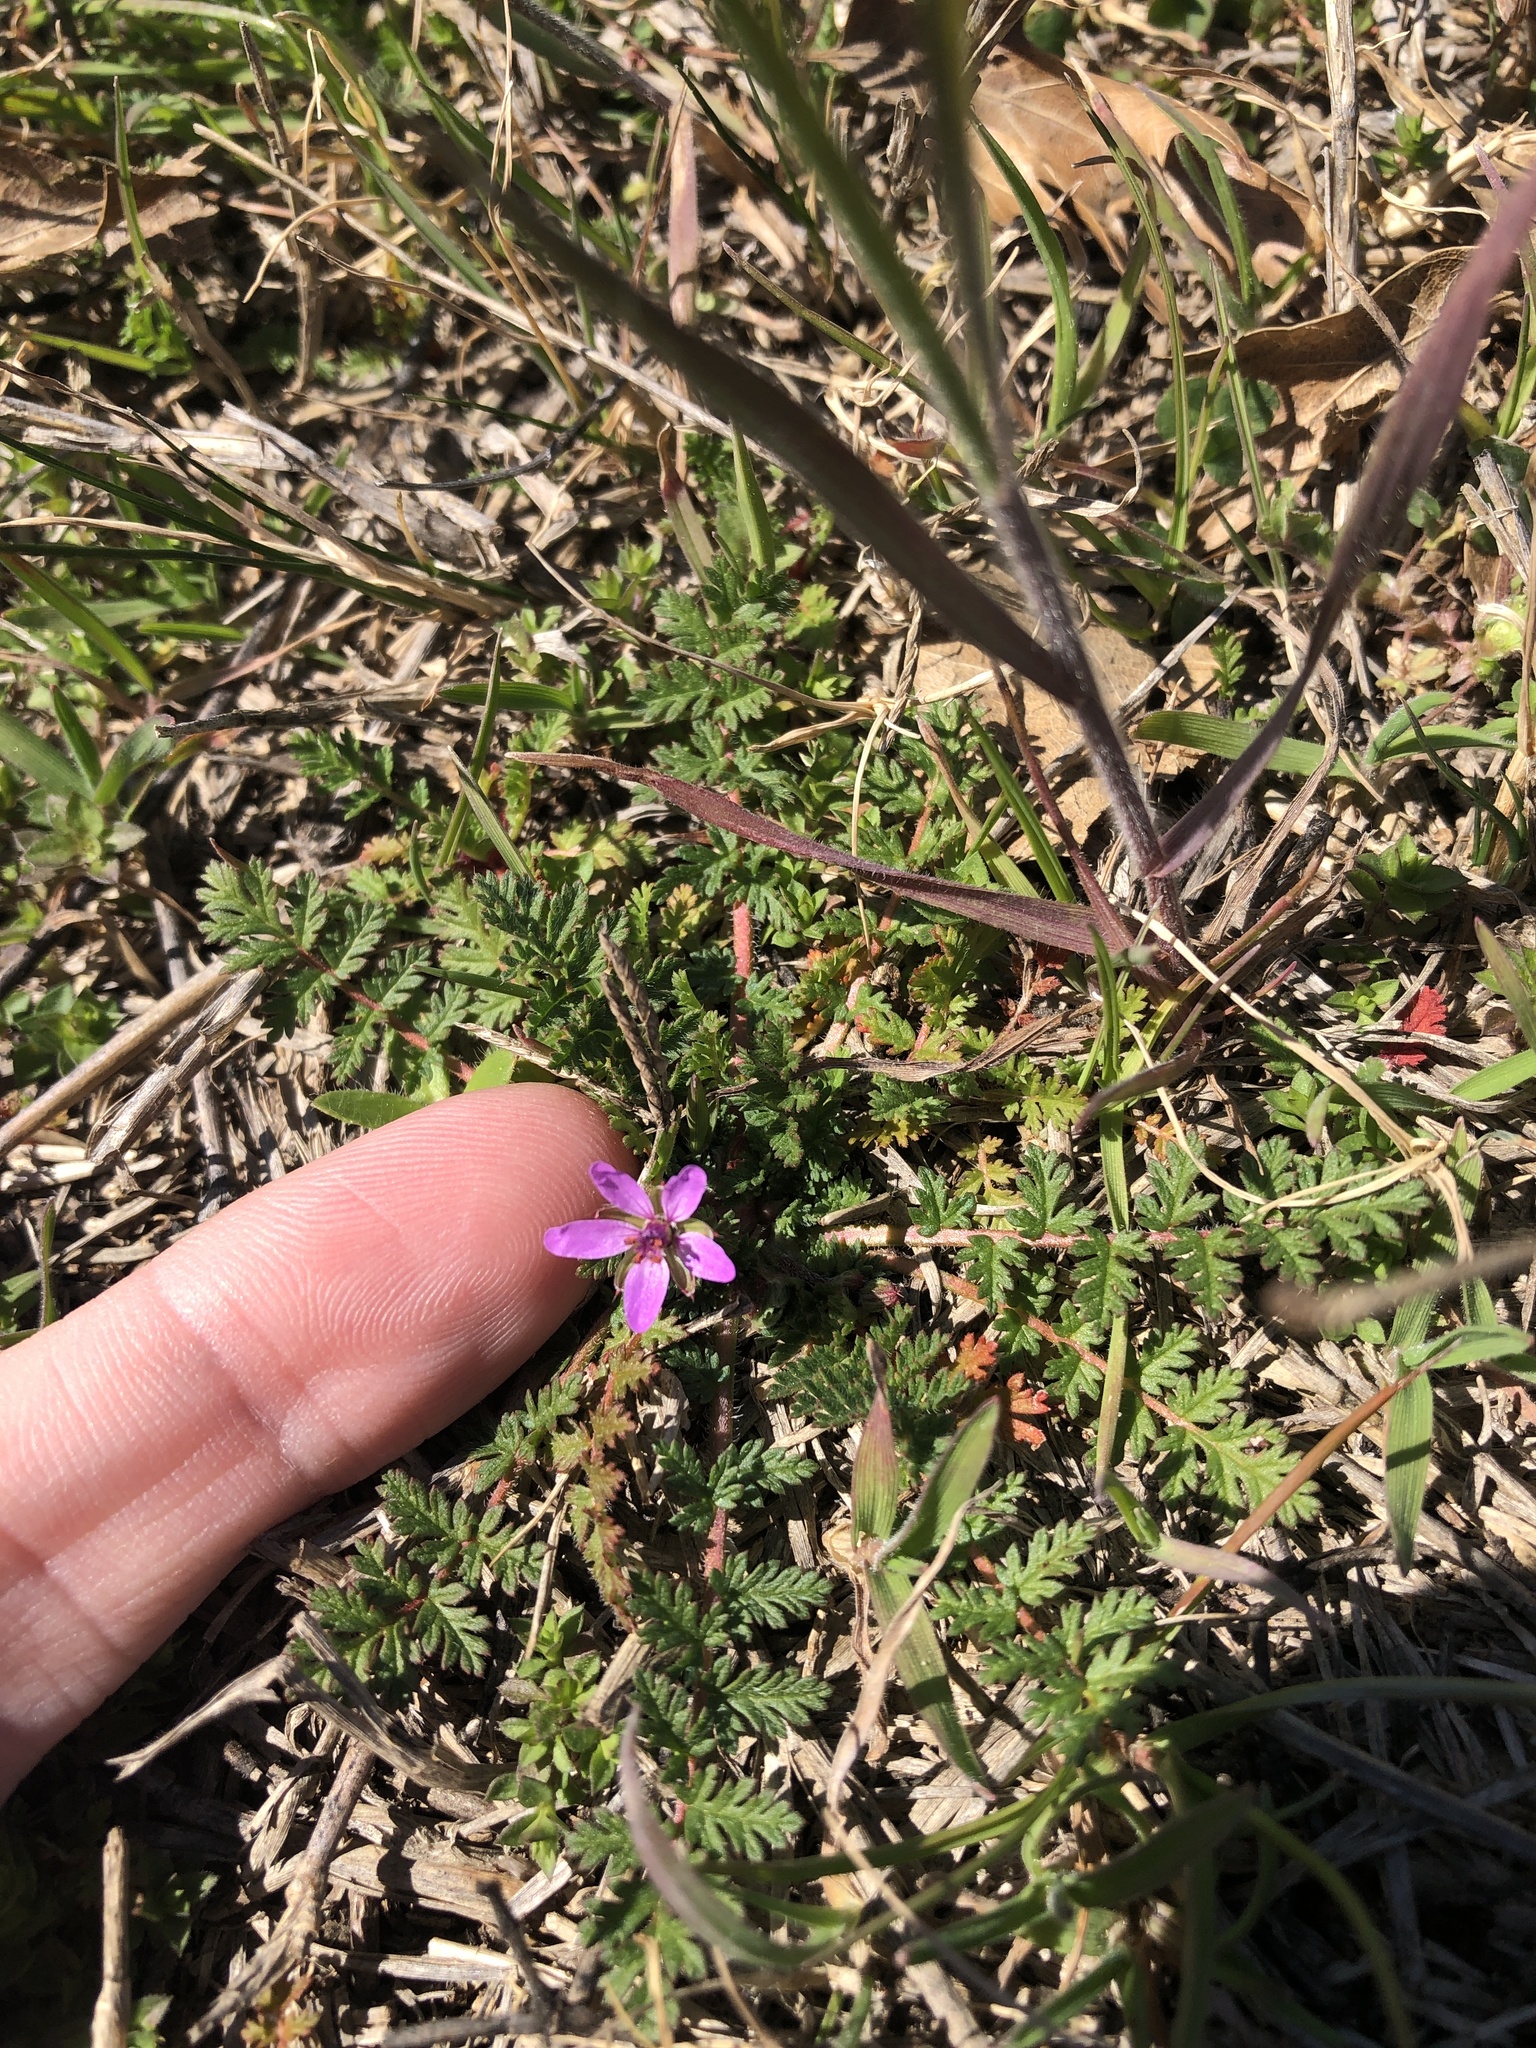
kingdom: Plantae
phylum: Tracheophyta
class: Magnoliopsida
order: Geraniales
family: Geraniaceae
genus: Erodium
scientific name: Erodium cicutarium
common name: Common stork's-bill
